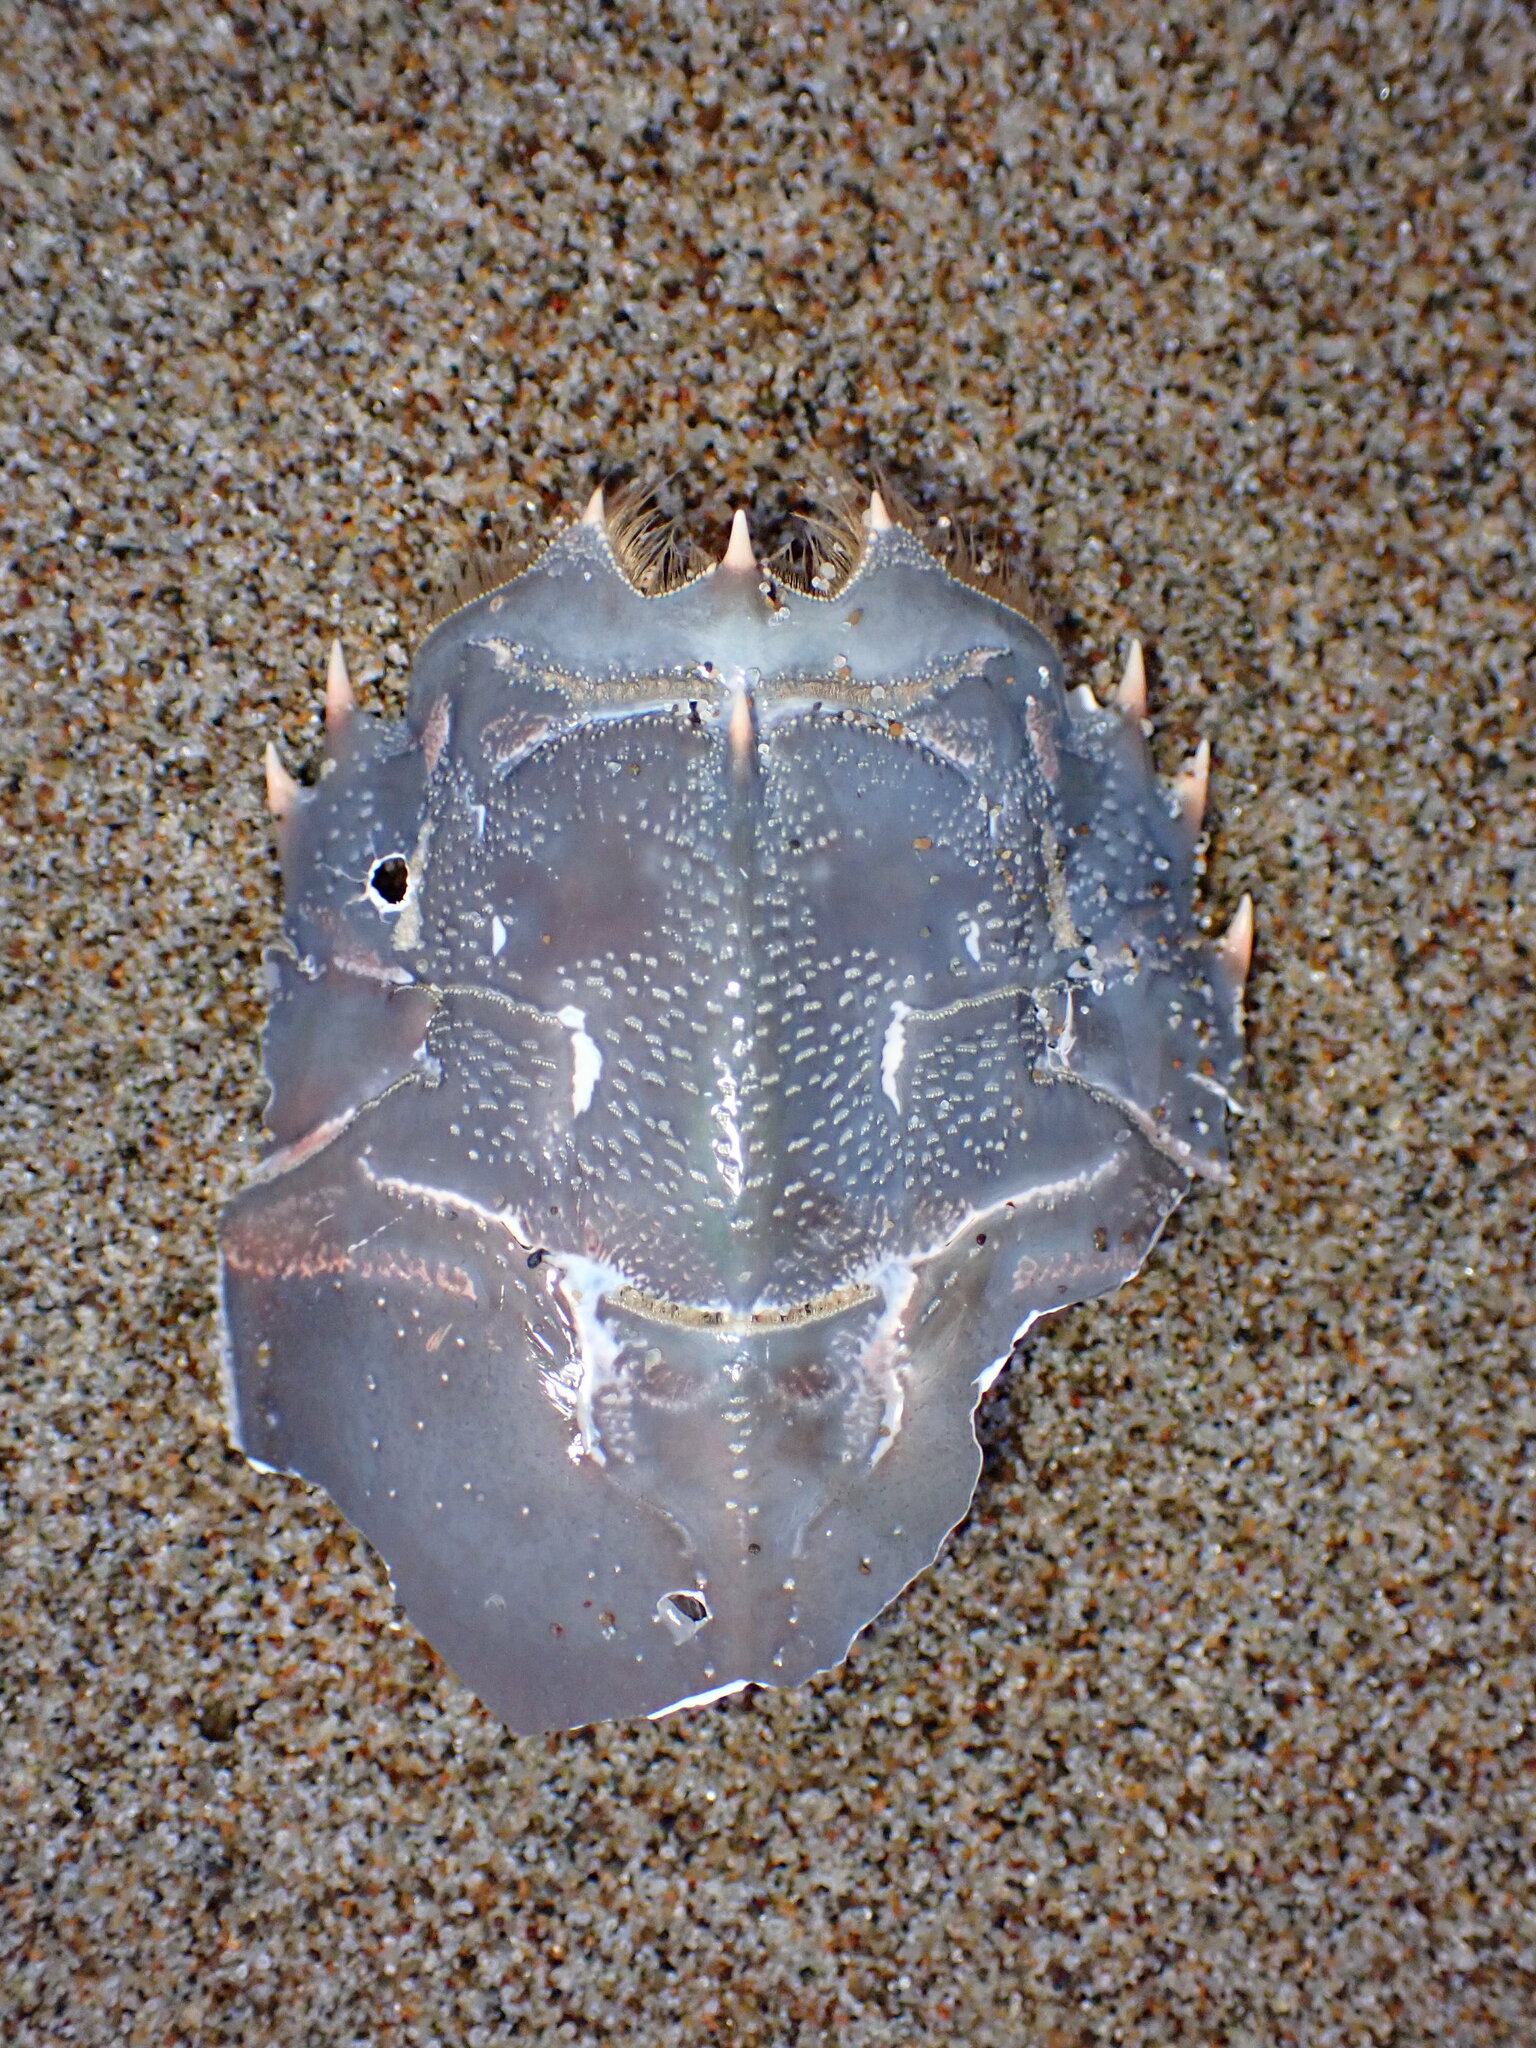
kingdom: Animalia
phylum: Arthropoda
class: Malacostraca
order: Decapoda
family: Blepharipodidae
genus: Blepharipoda
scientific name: Blepharipoda occidentalis
